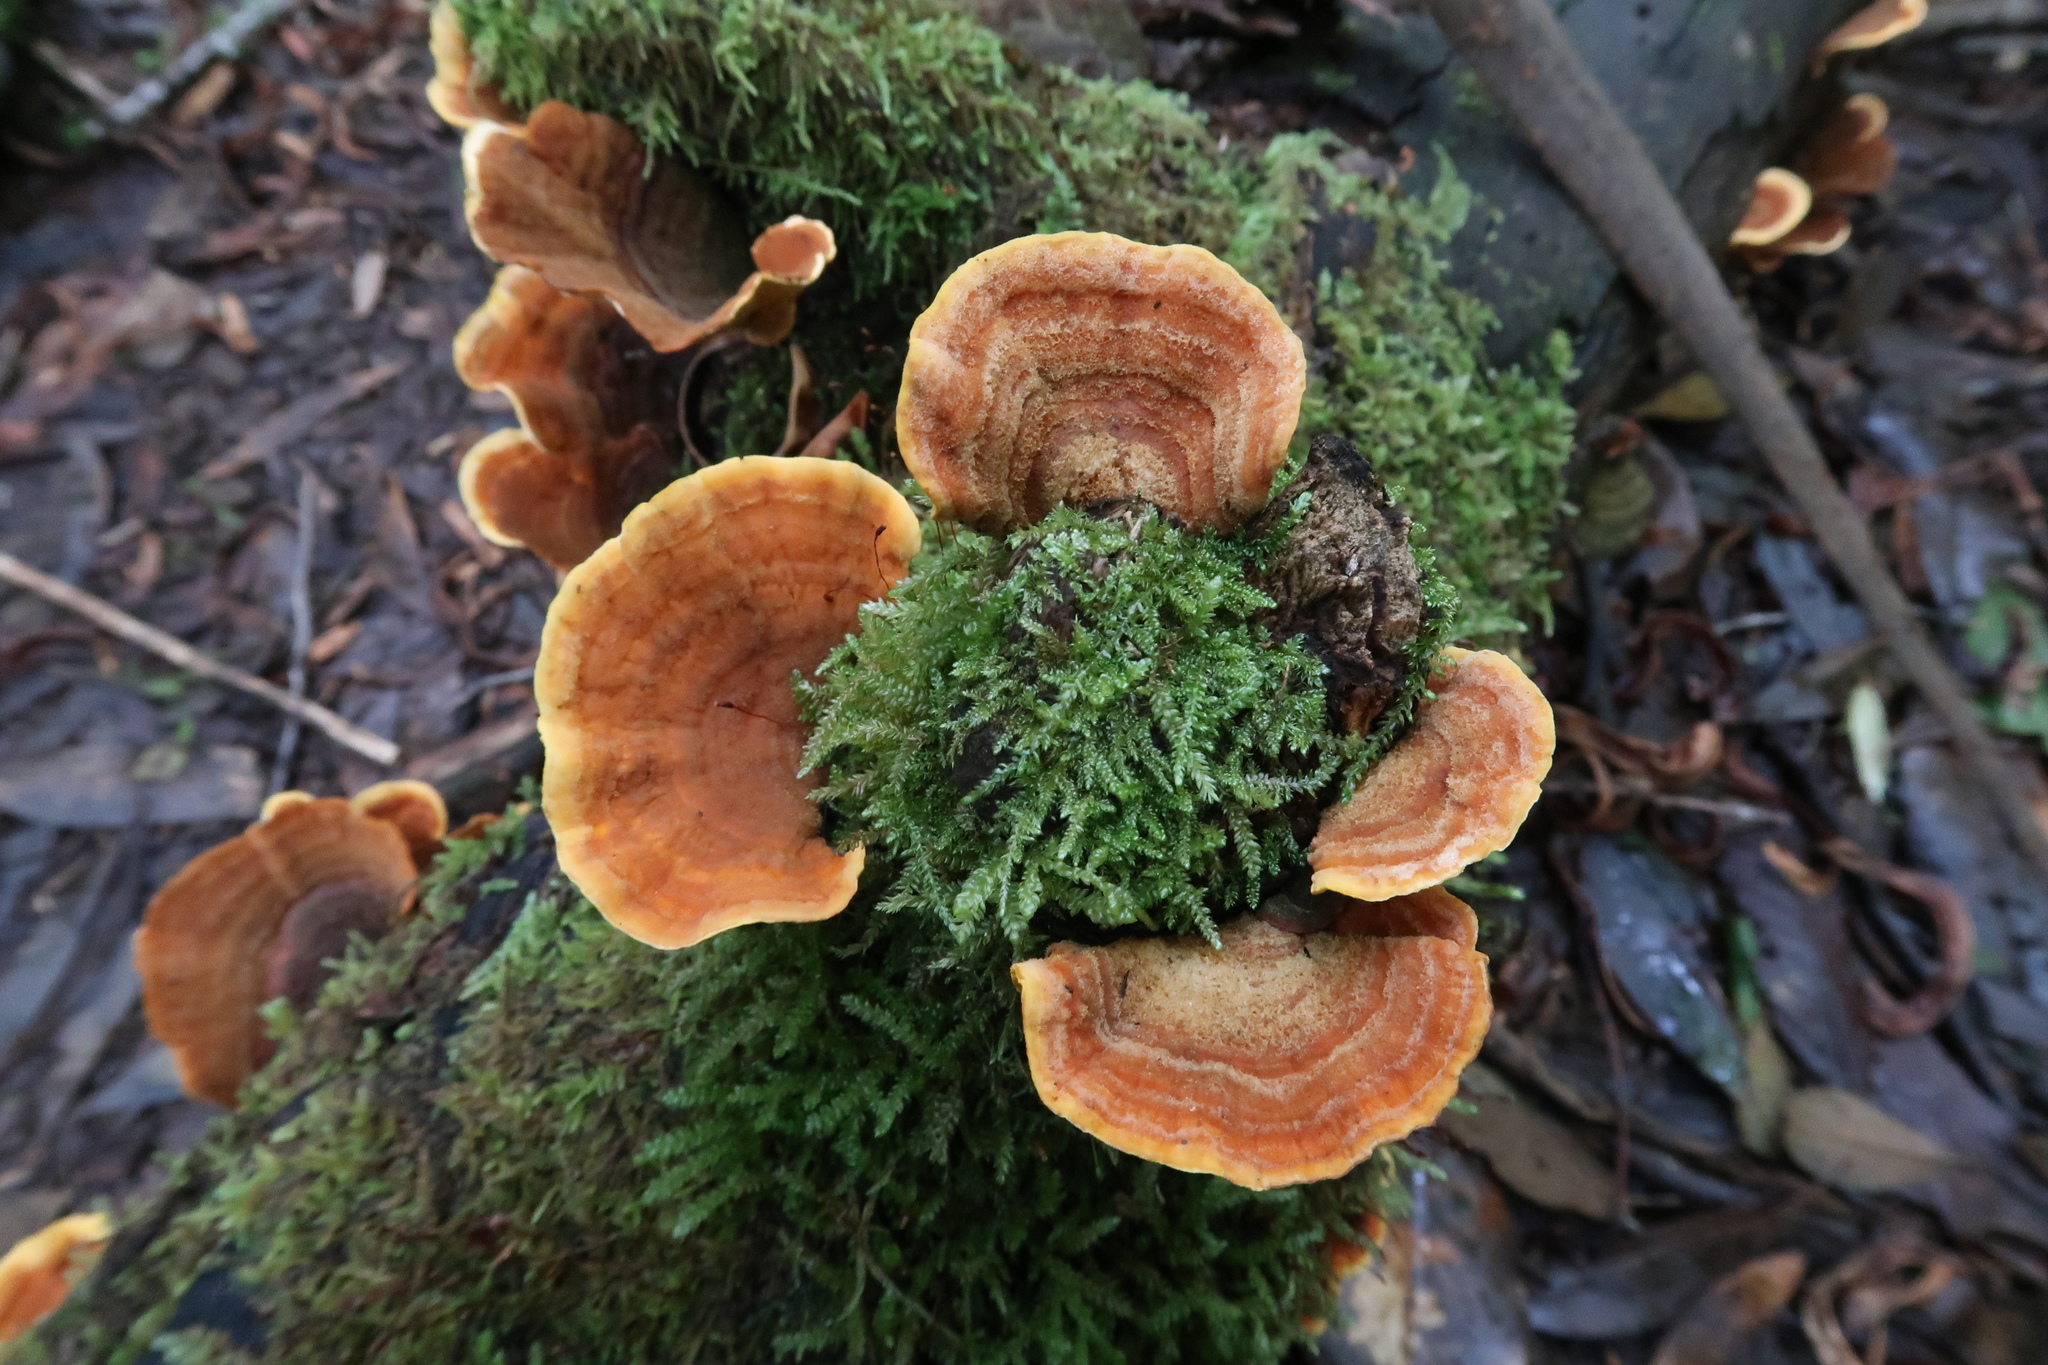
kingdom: Fungi
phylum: Basidiomycota
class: Agaricomycetes
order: Russulales
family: Stereaceae
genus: Stereum
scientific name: Stereum versicolor
